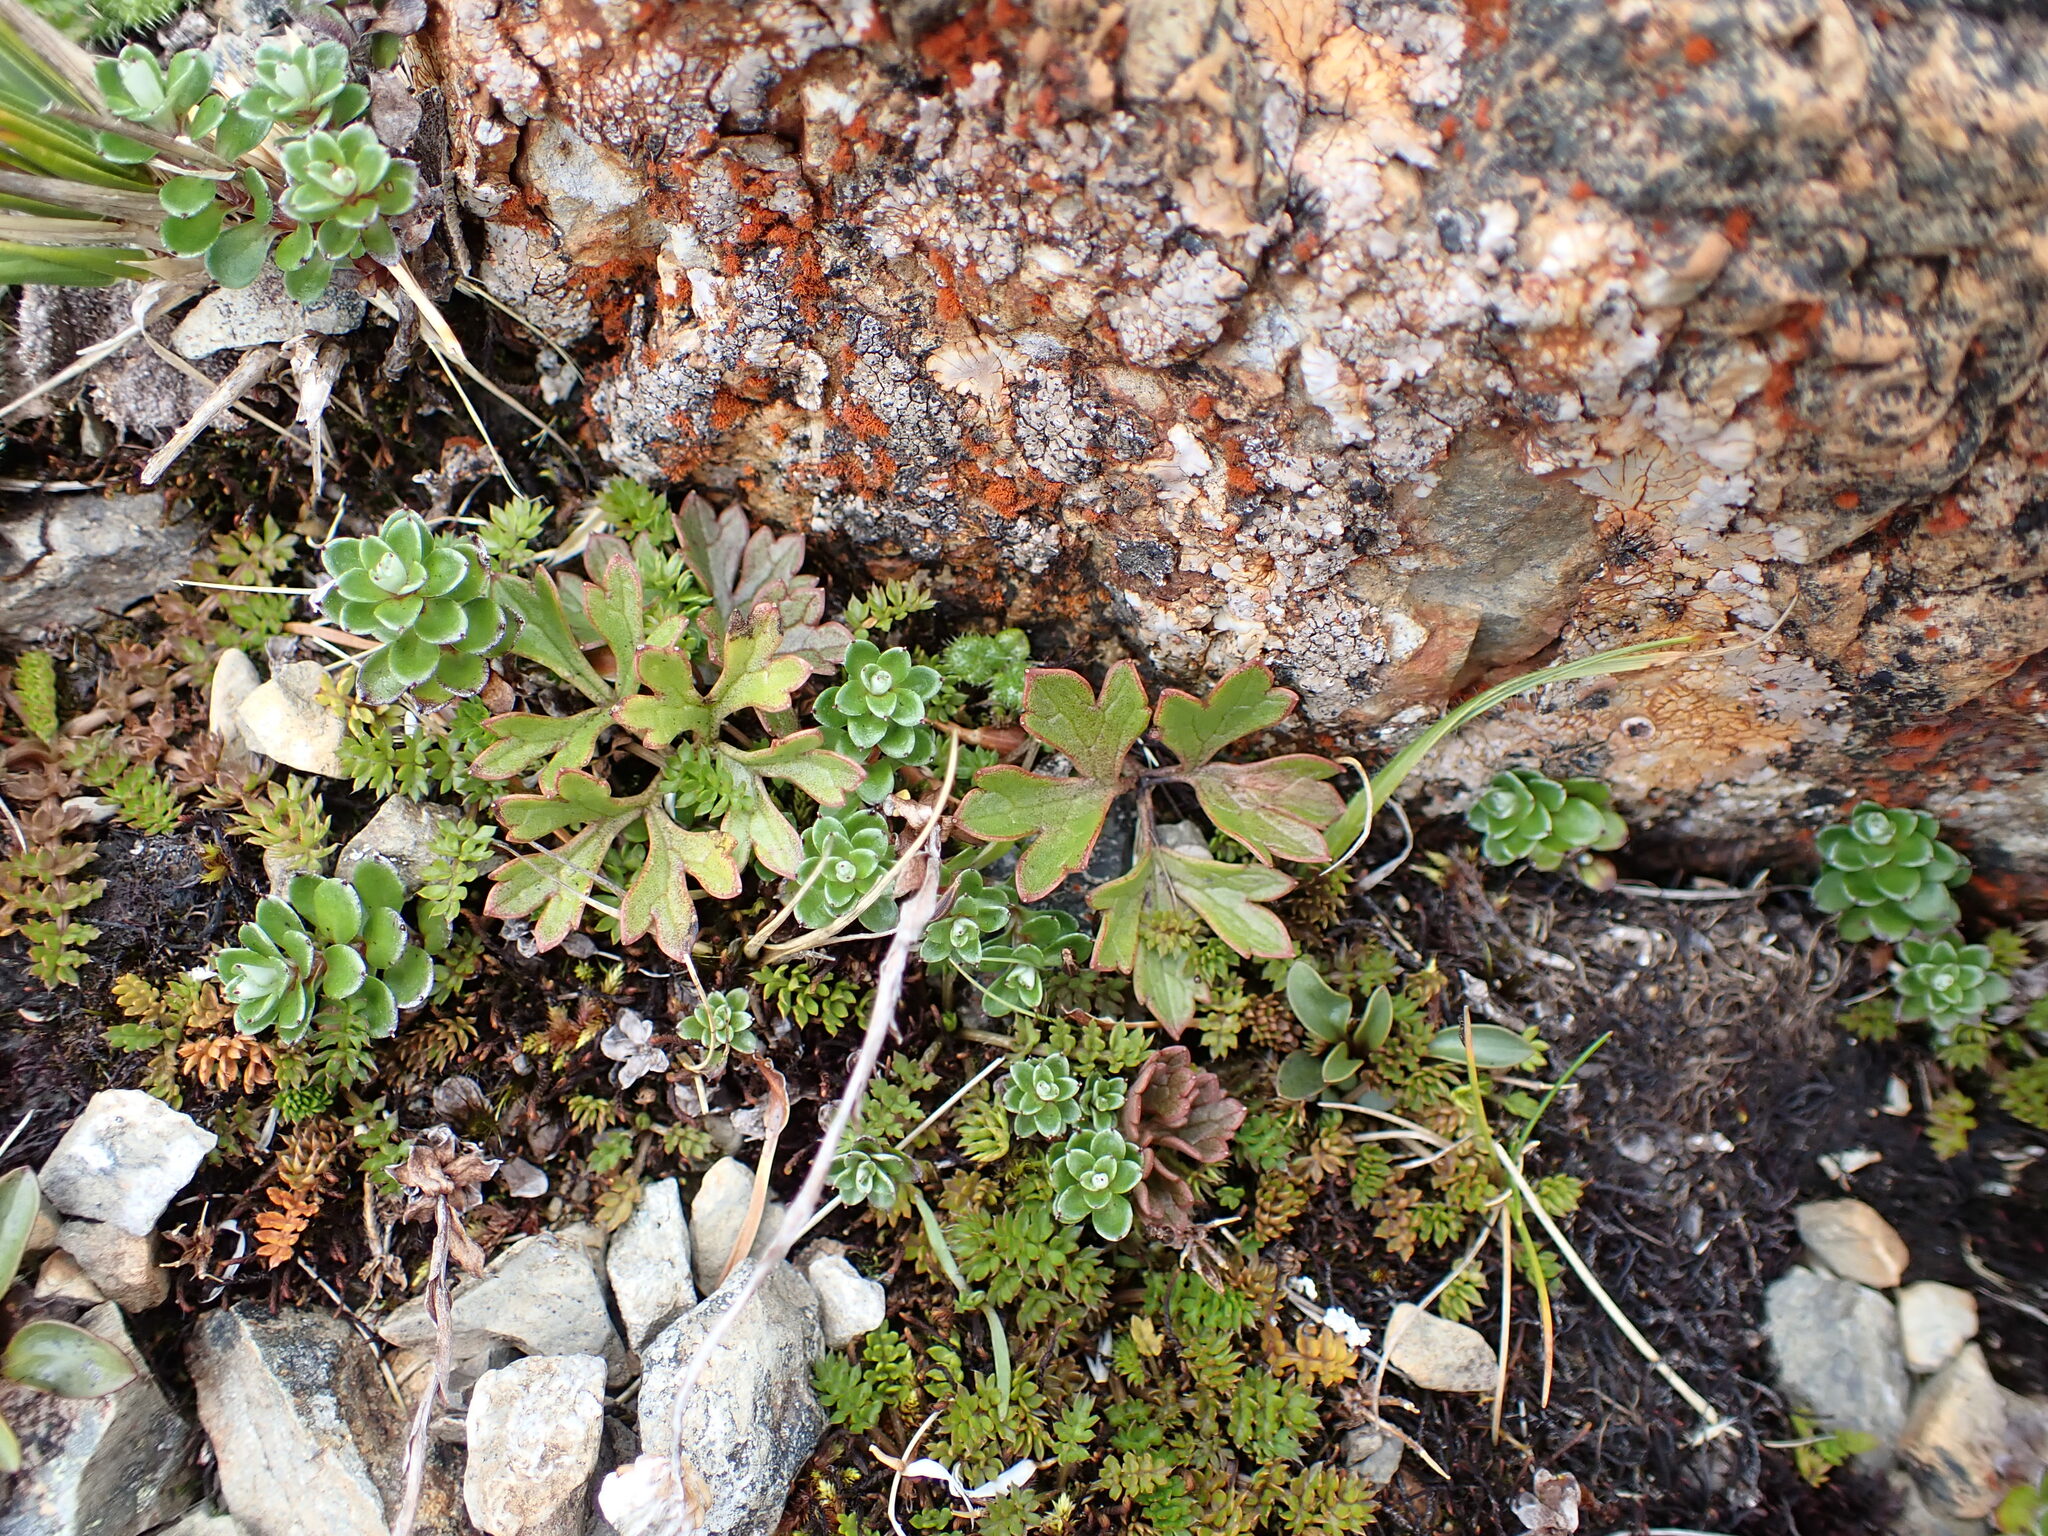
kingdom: Plantae
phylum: Tracheophyta
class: Magnoliopsida
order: Ranunculales
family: Ranunculaceae
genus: Ranunculus
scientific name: Ranunculus verticillatus
